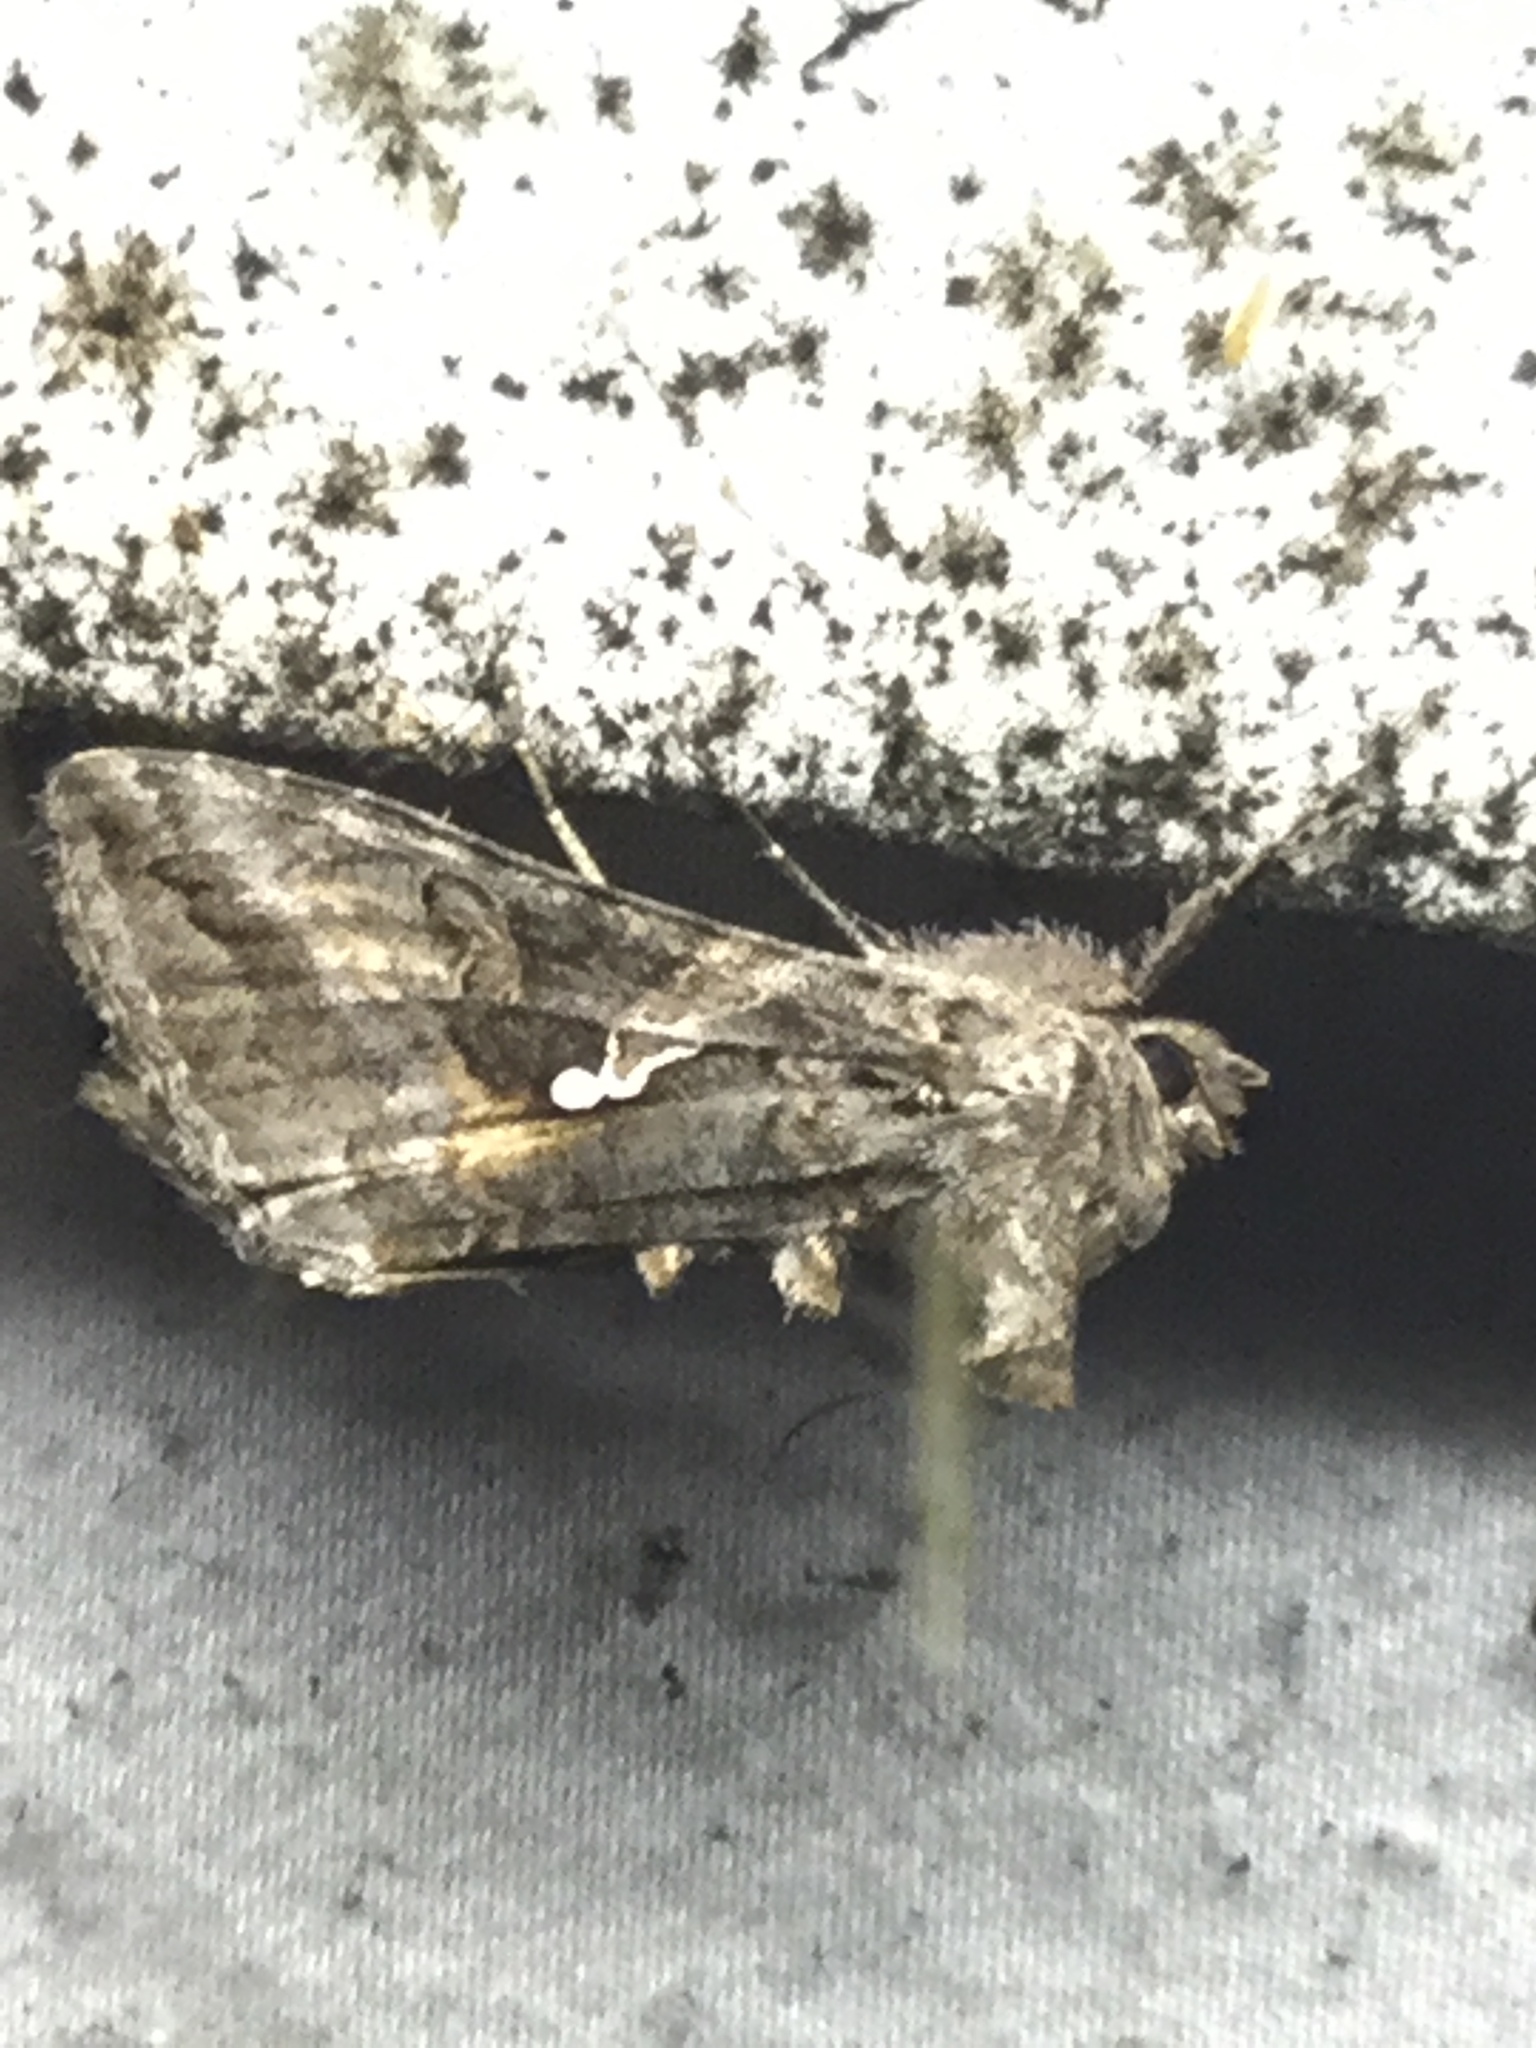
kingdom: Animalia
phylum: Arthropoda
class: Insecta
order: Lepidoptera
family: Noctuidae
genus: Rachiplusia
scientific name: Rachiplusia ou
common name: Gray looper moth
